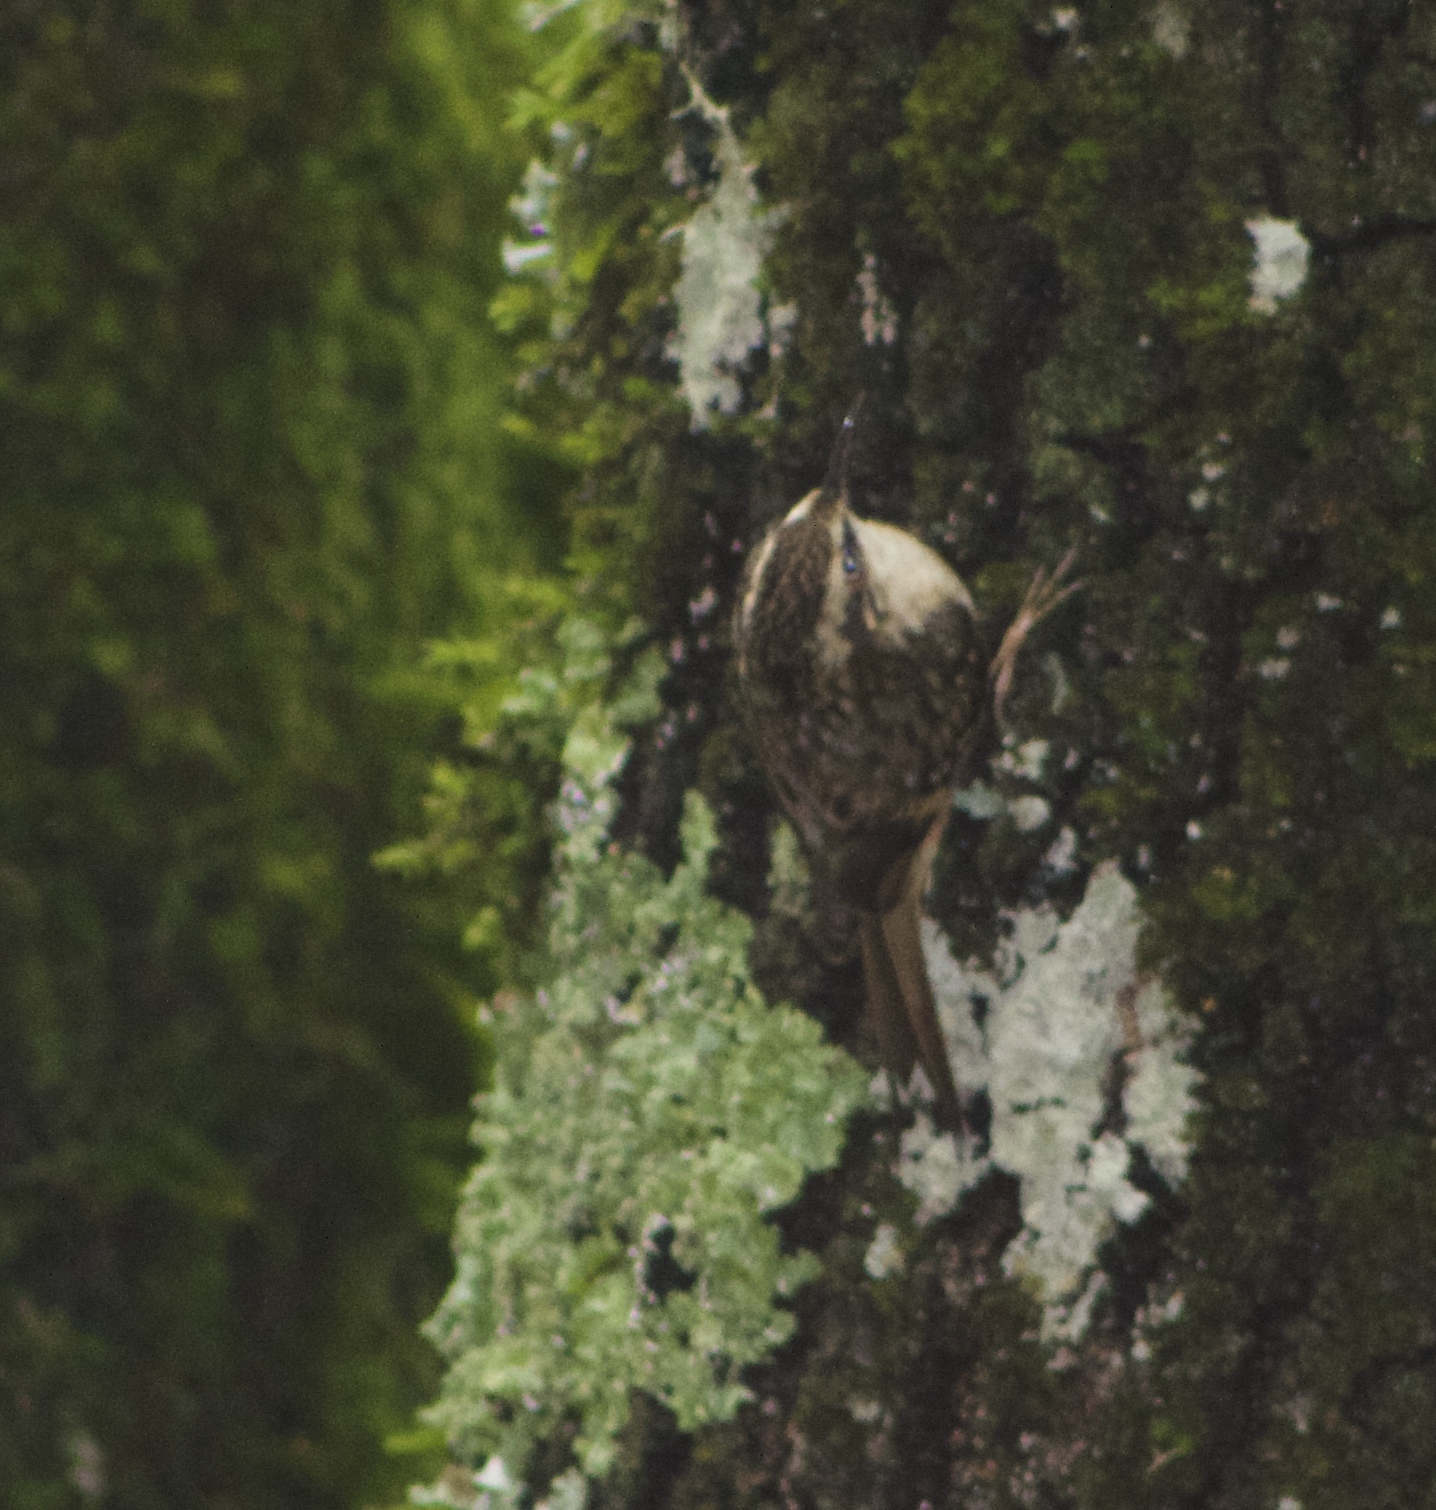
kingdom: Animalia
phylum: Chordata
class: Aves
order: Passeriformes
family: Certhiidae
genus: Certhia
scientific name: Certhia americana
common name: Brown creeper
